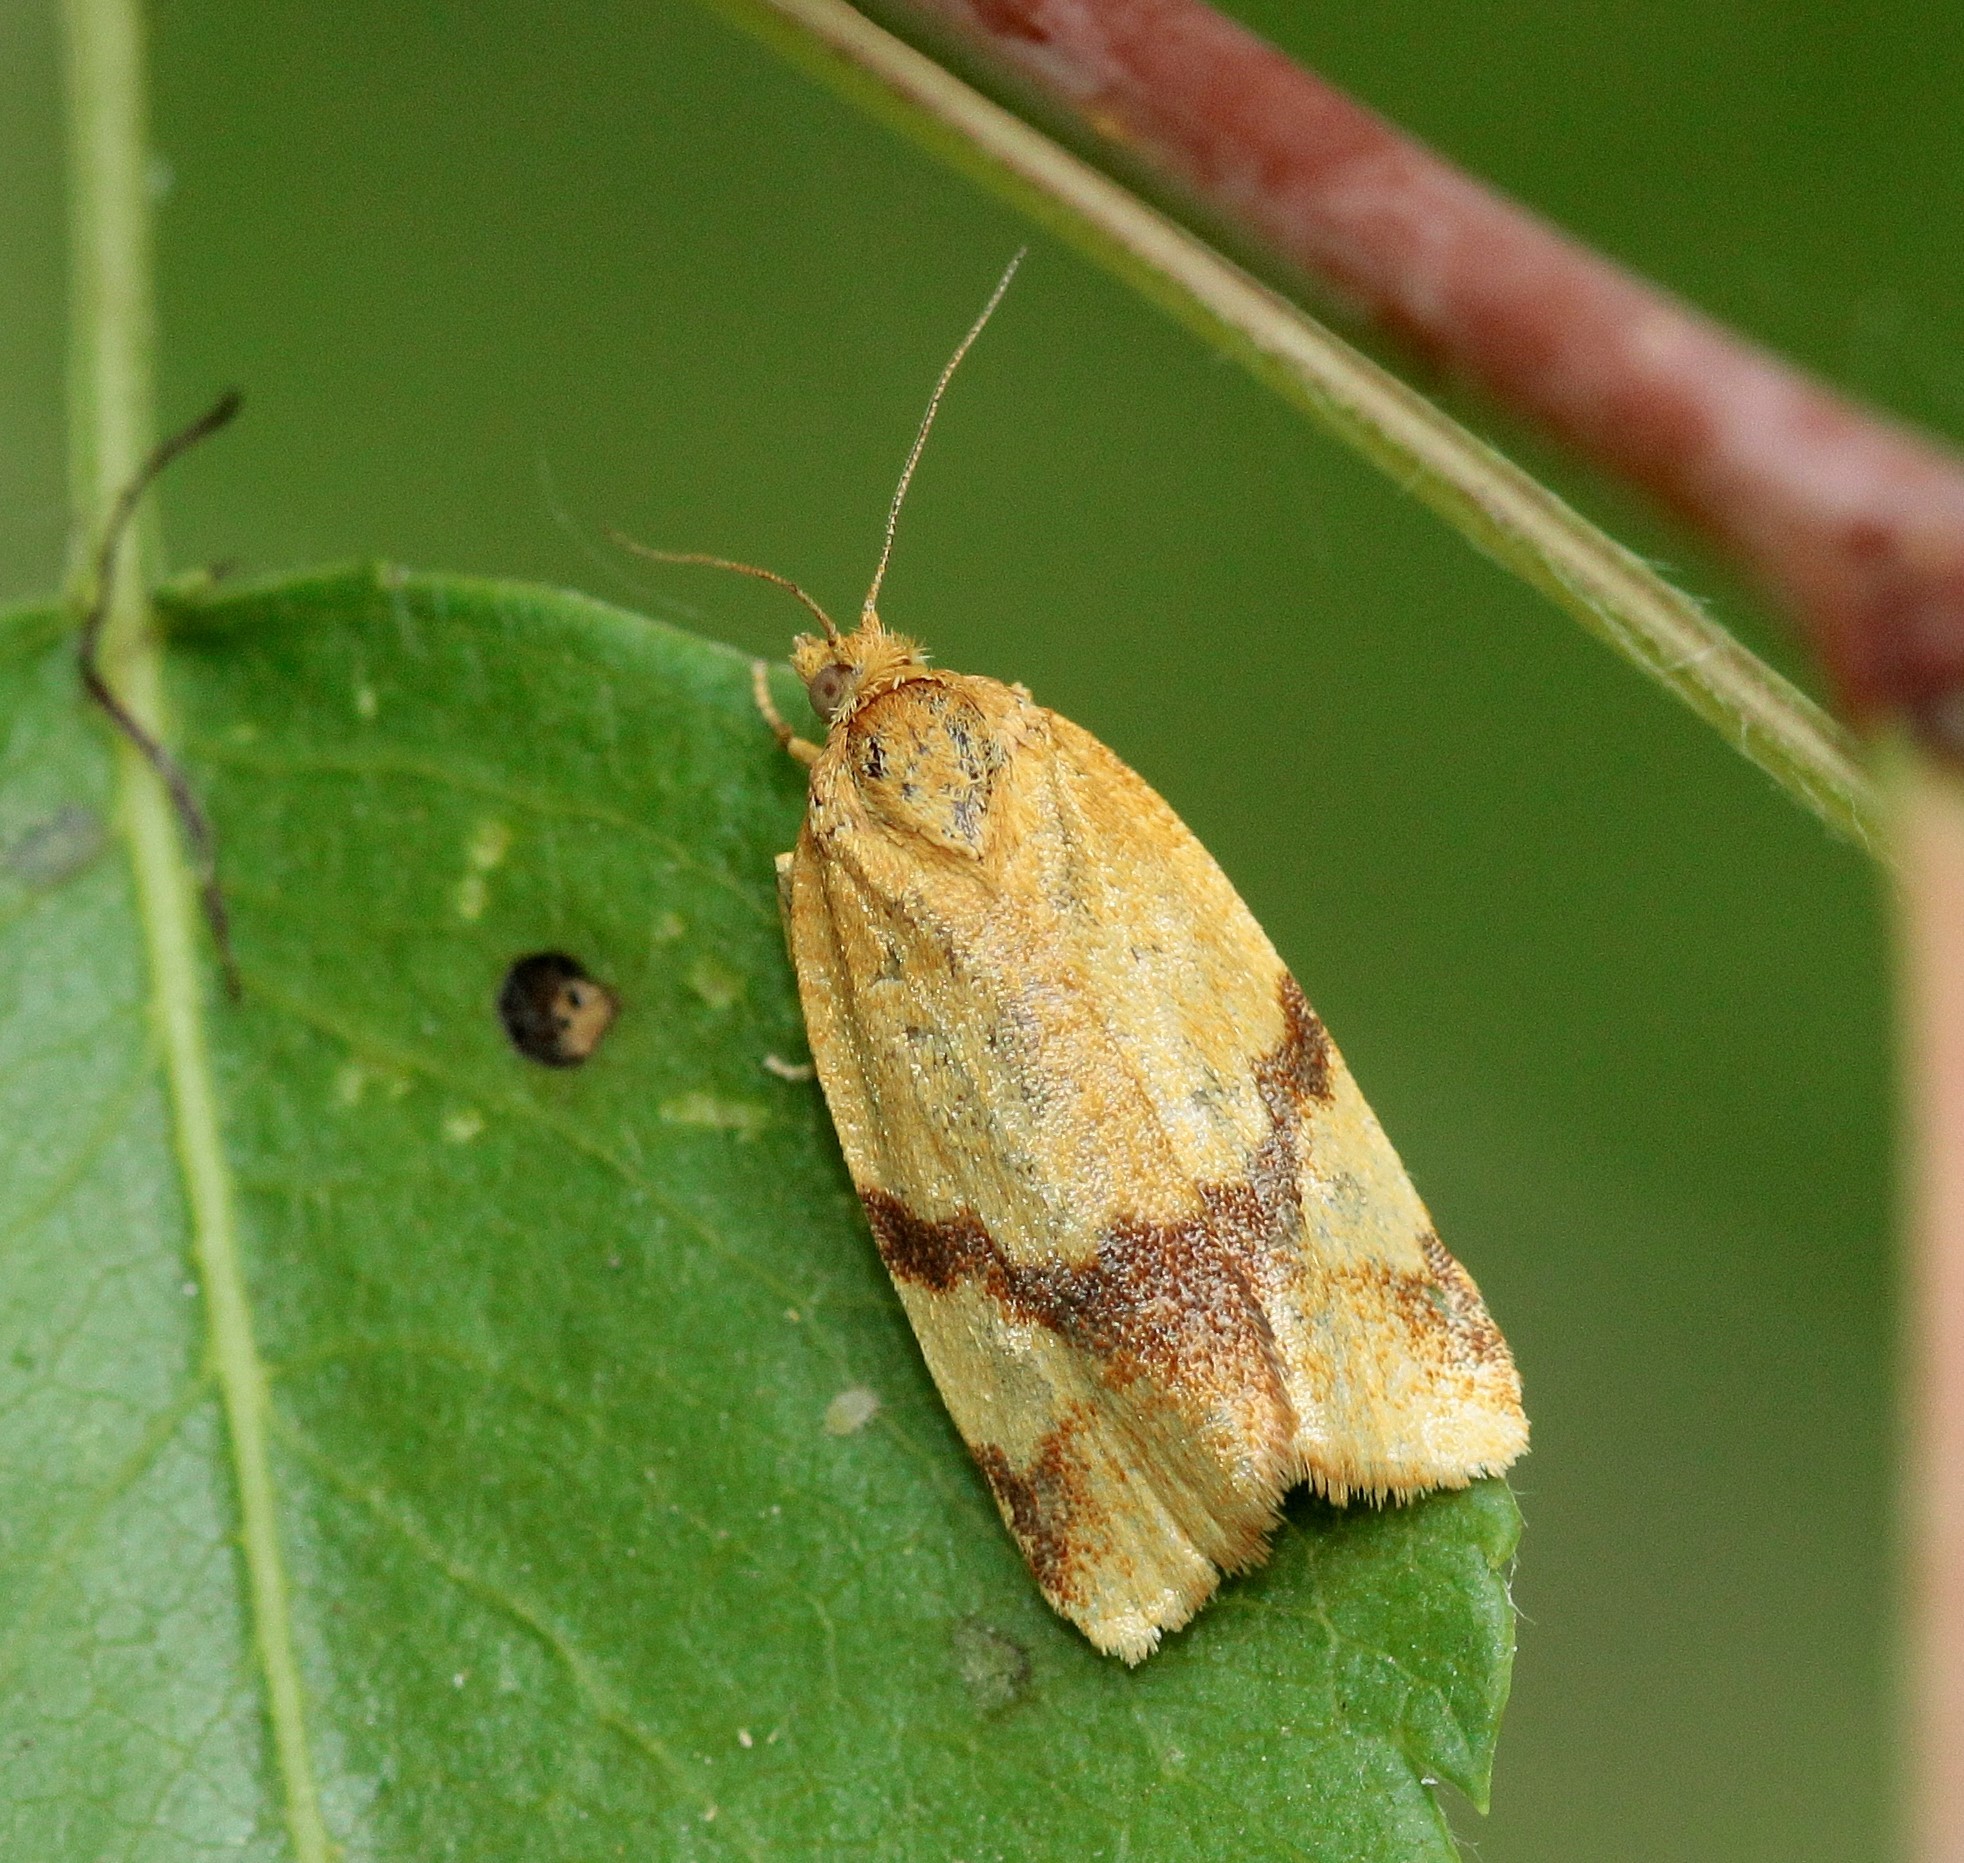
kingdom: Animalia
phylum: Arthropoda
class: Insecta
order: Lepidoptera
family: Tortricidae
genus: Aphelia
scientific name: Aphelia ochreana
